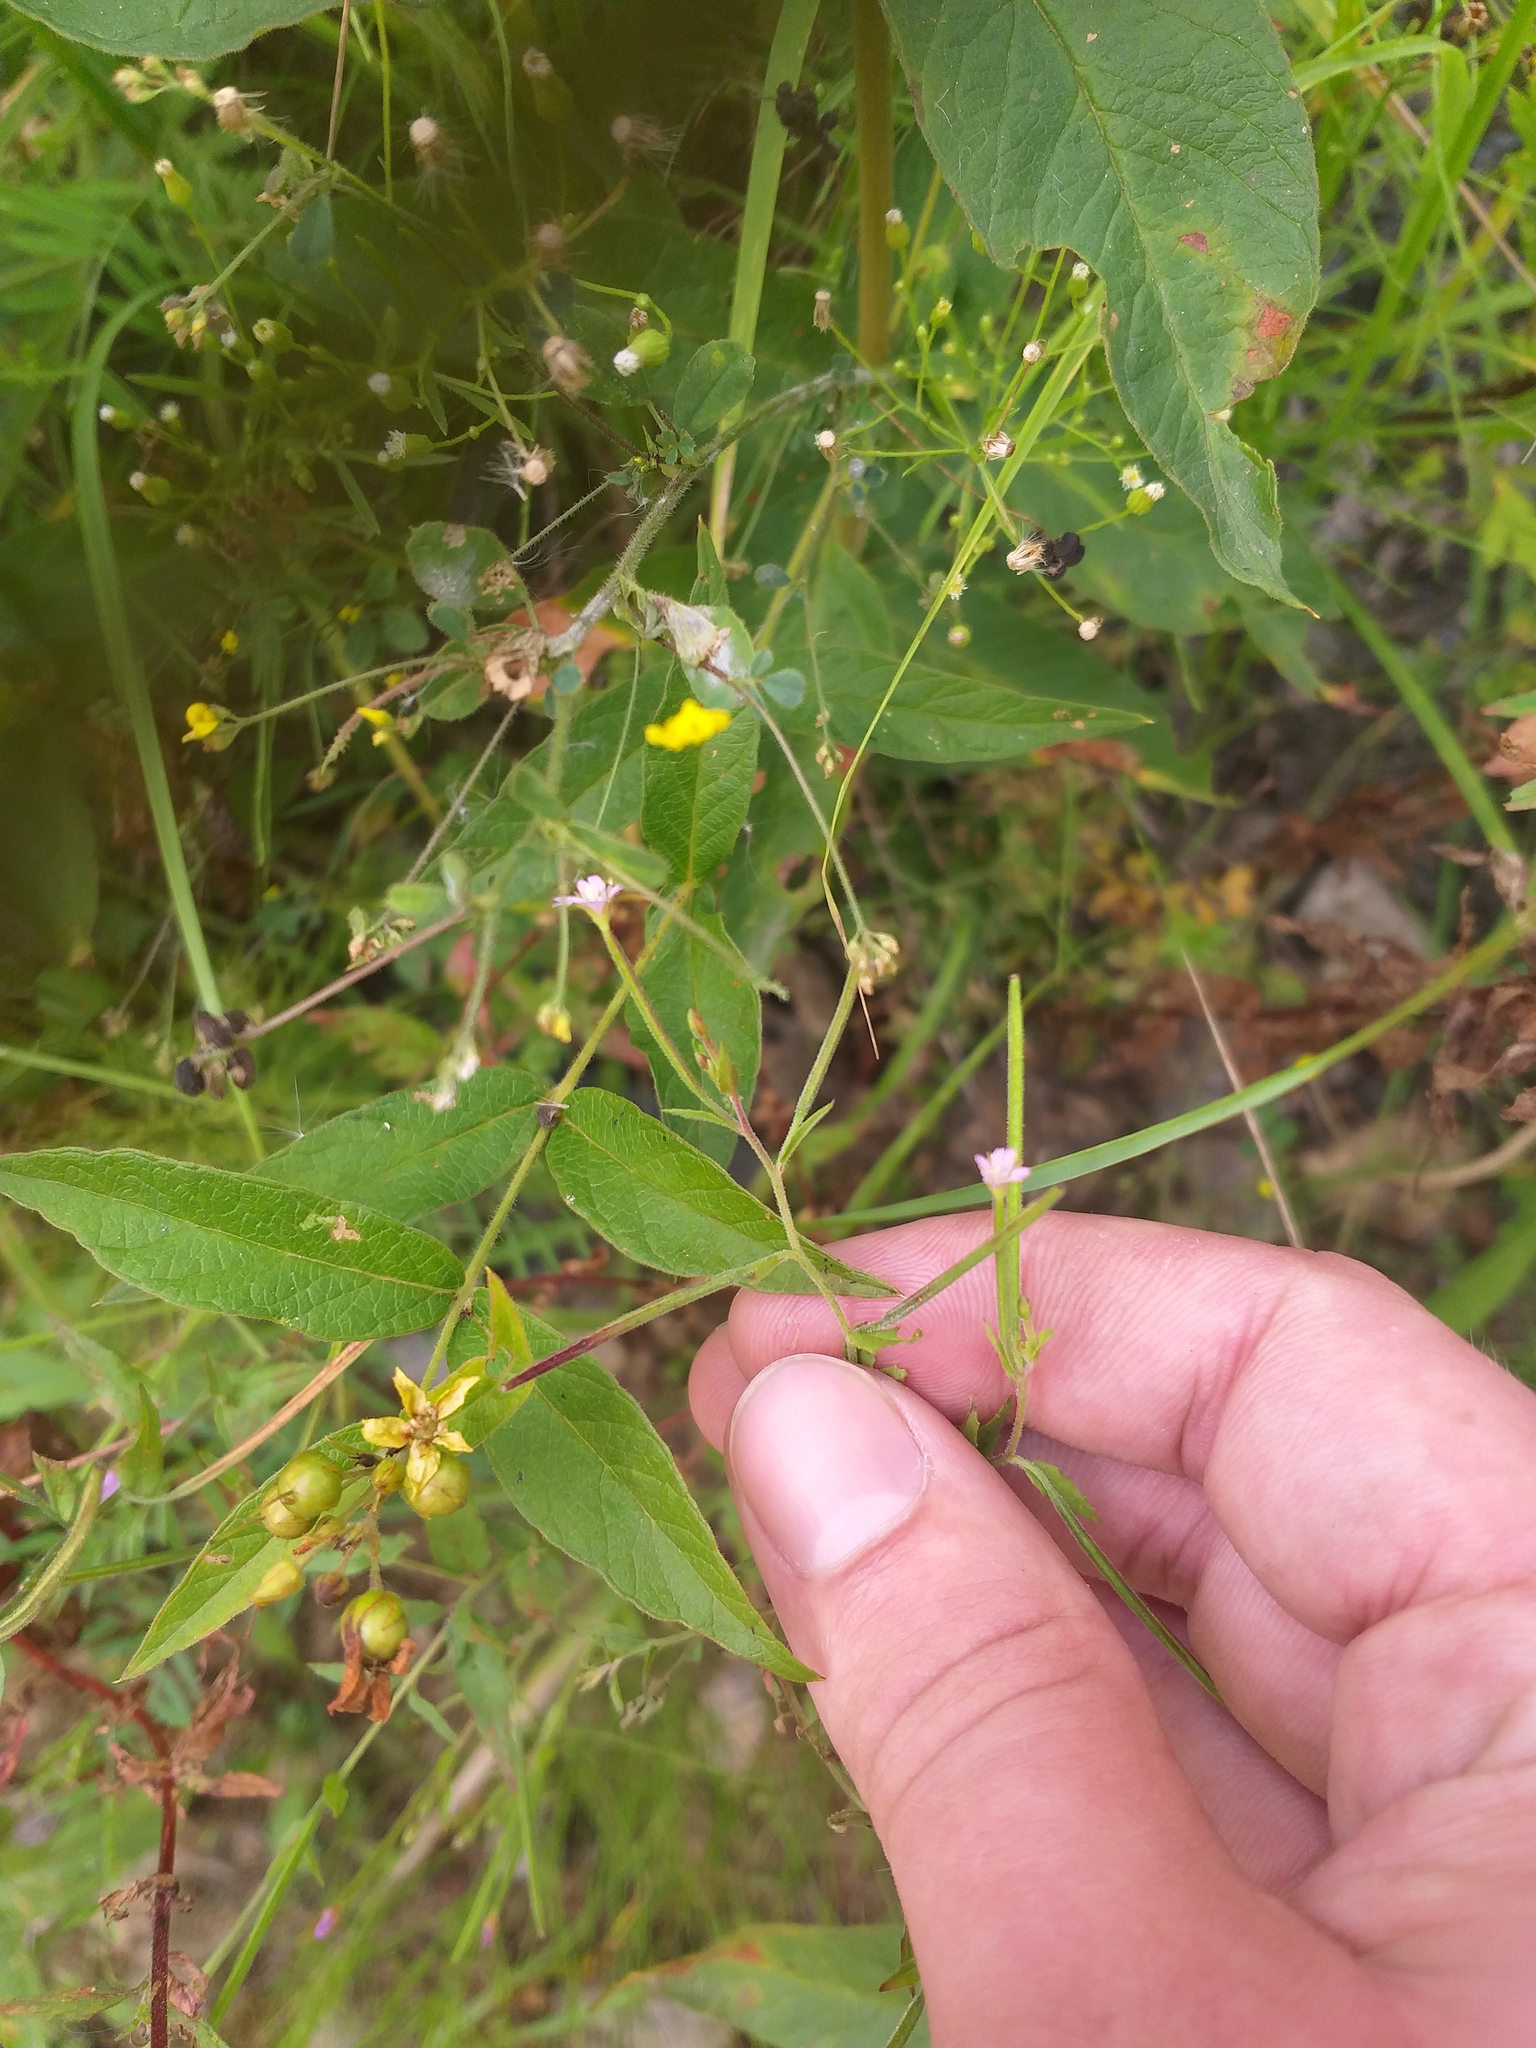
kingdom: Plantae
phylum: Tracheophyta
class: Magnoliopsida
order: Myrtales
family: Onagraceae
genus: Epilobium
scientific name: Epilobium ciliatum
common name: American willowherb
